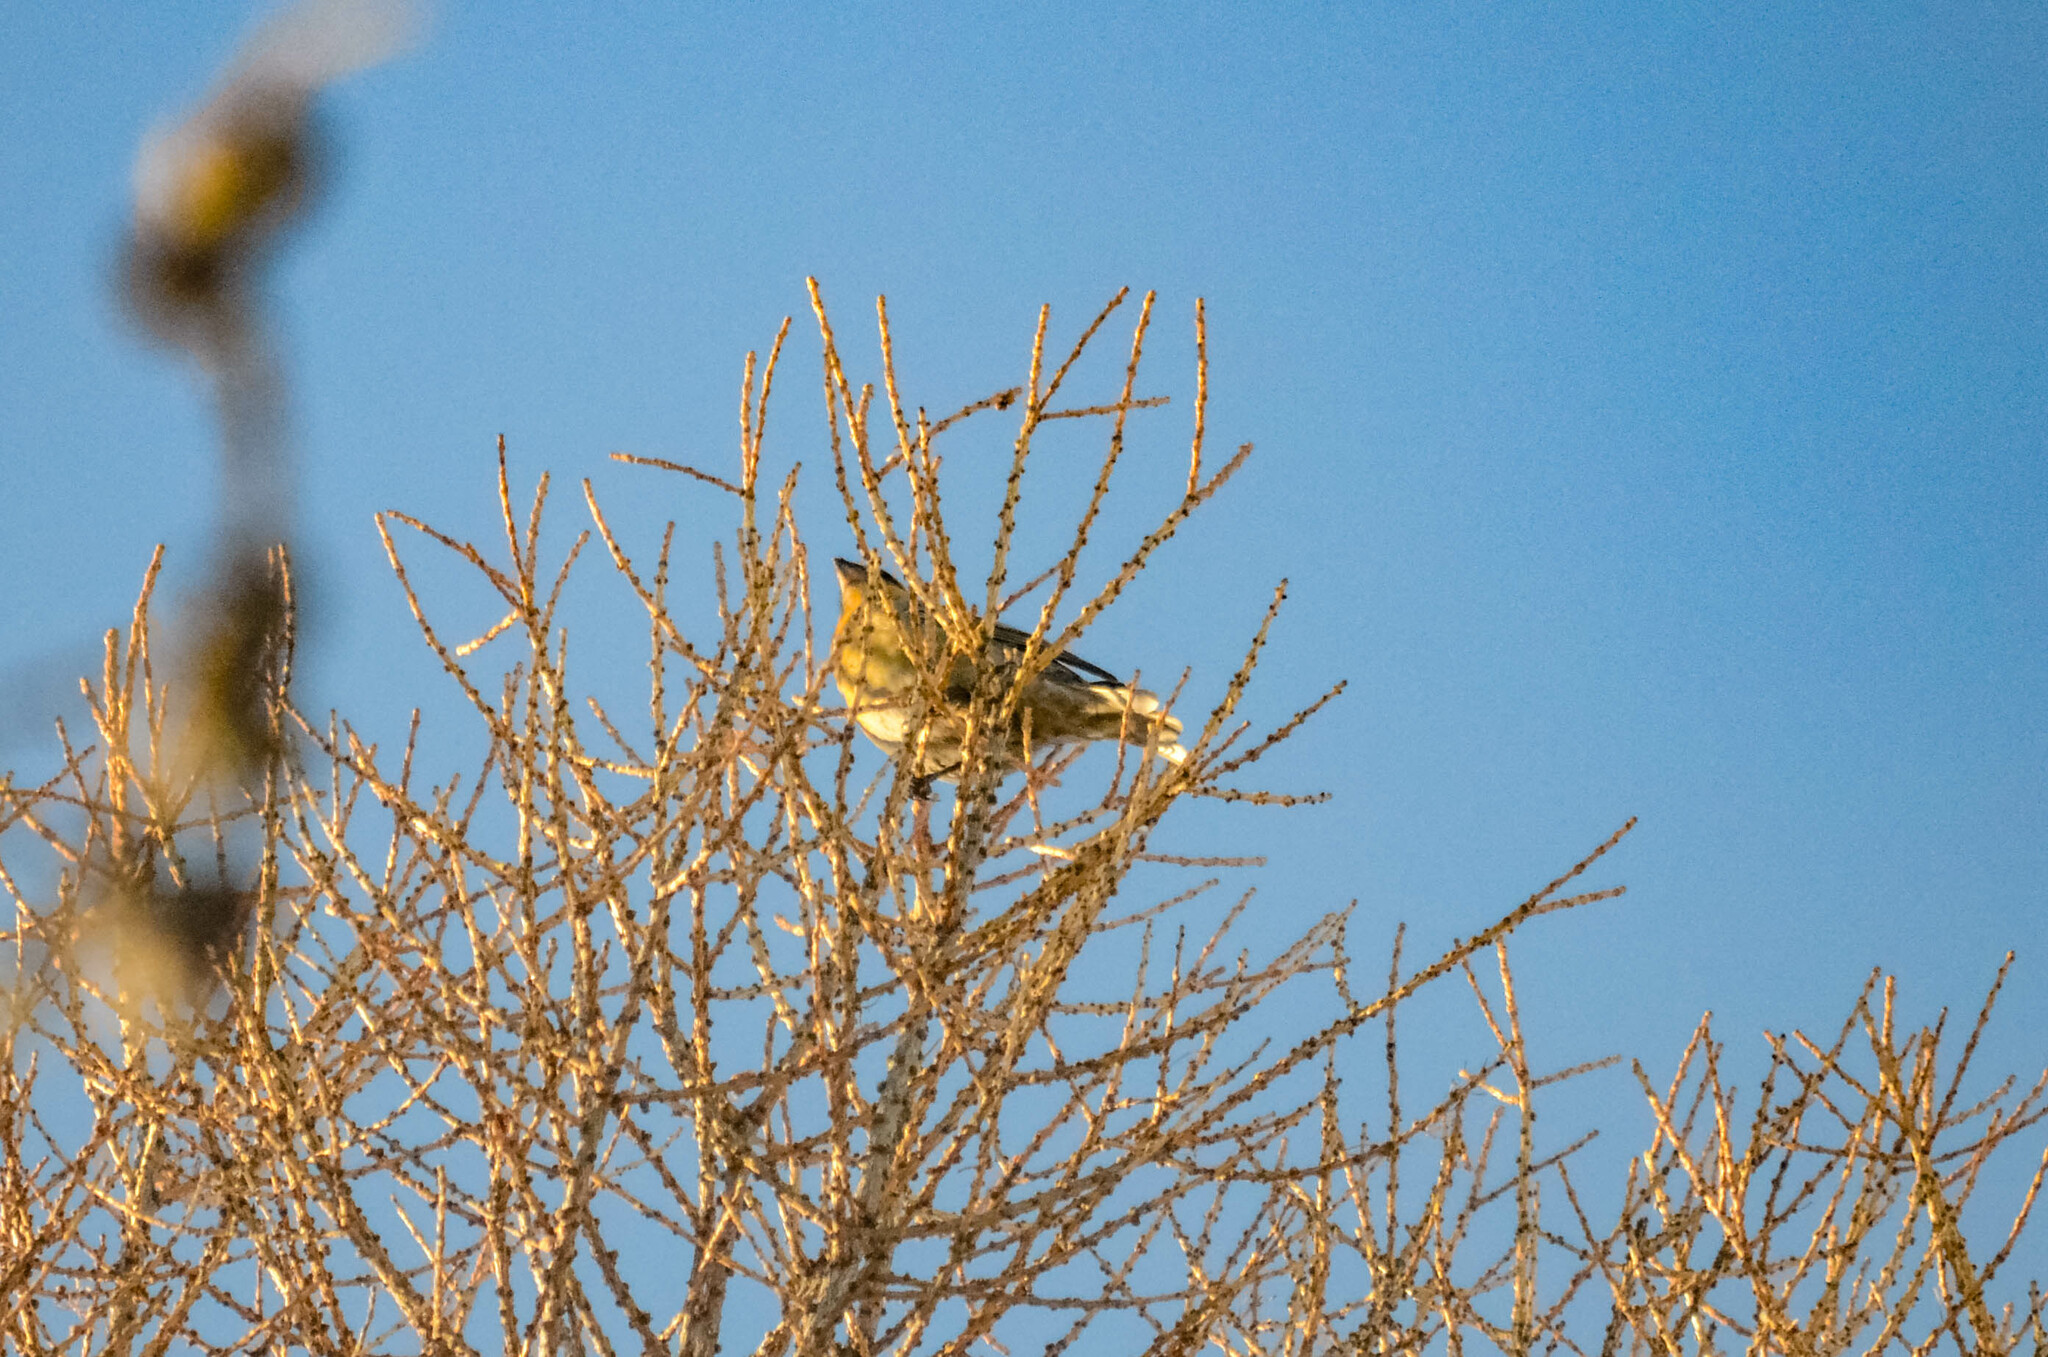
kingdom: Plantae
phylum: Tracheophyta
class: Liliopsida
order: Poales
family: Poaceae
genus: Chloris
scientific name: Chloris chloris
